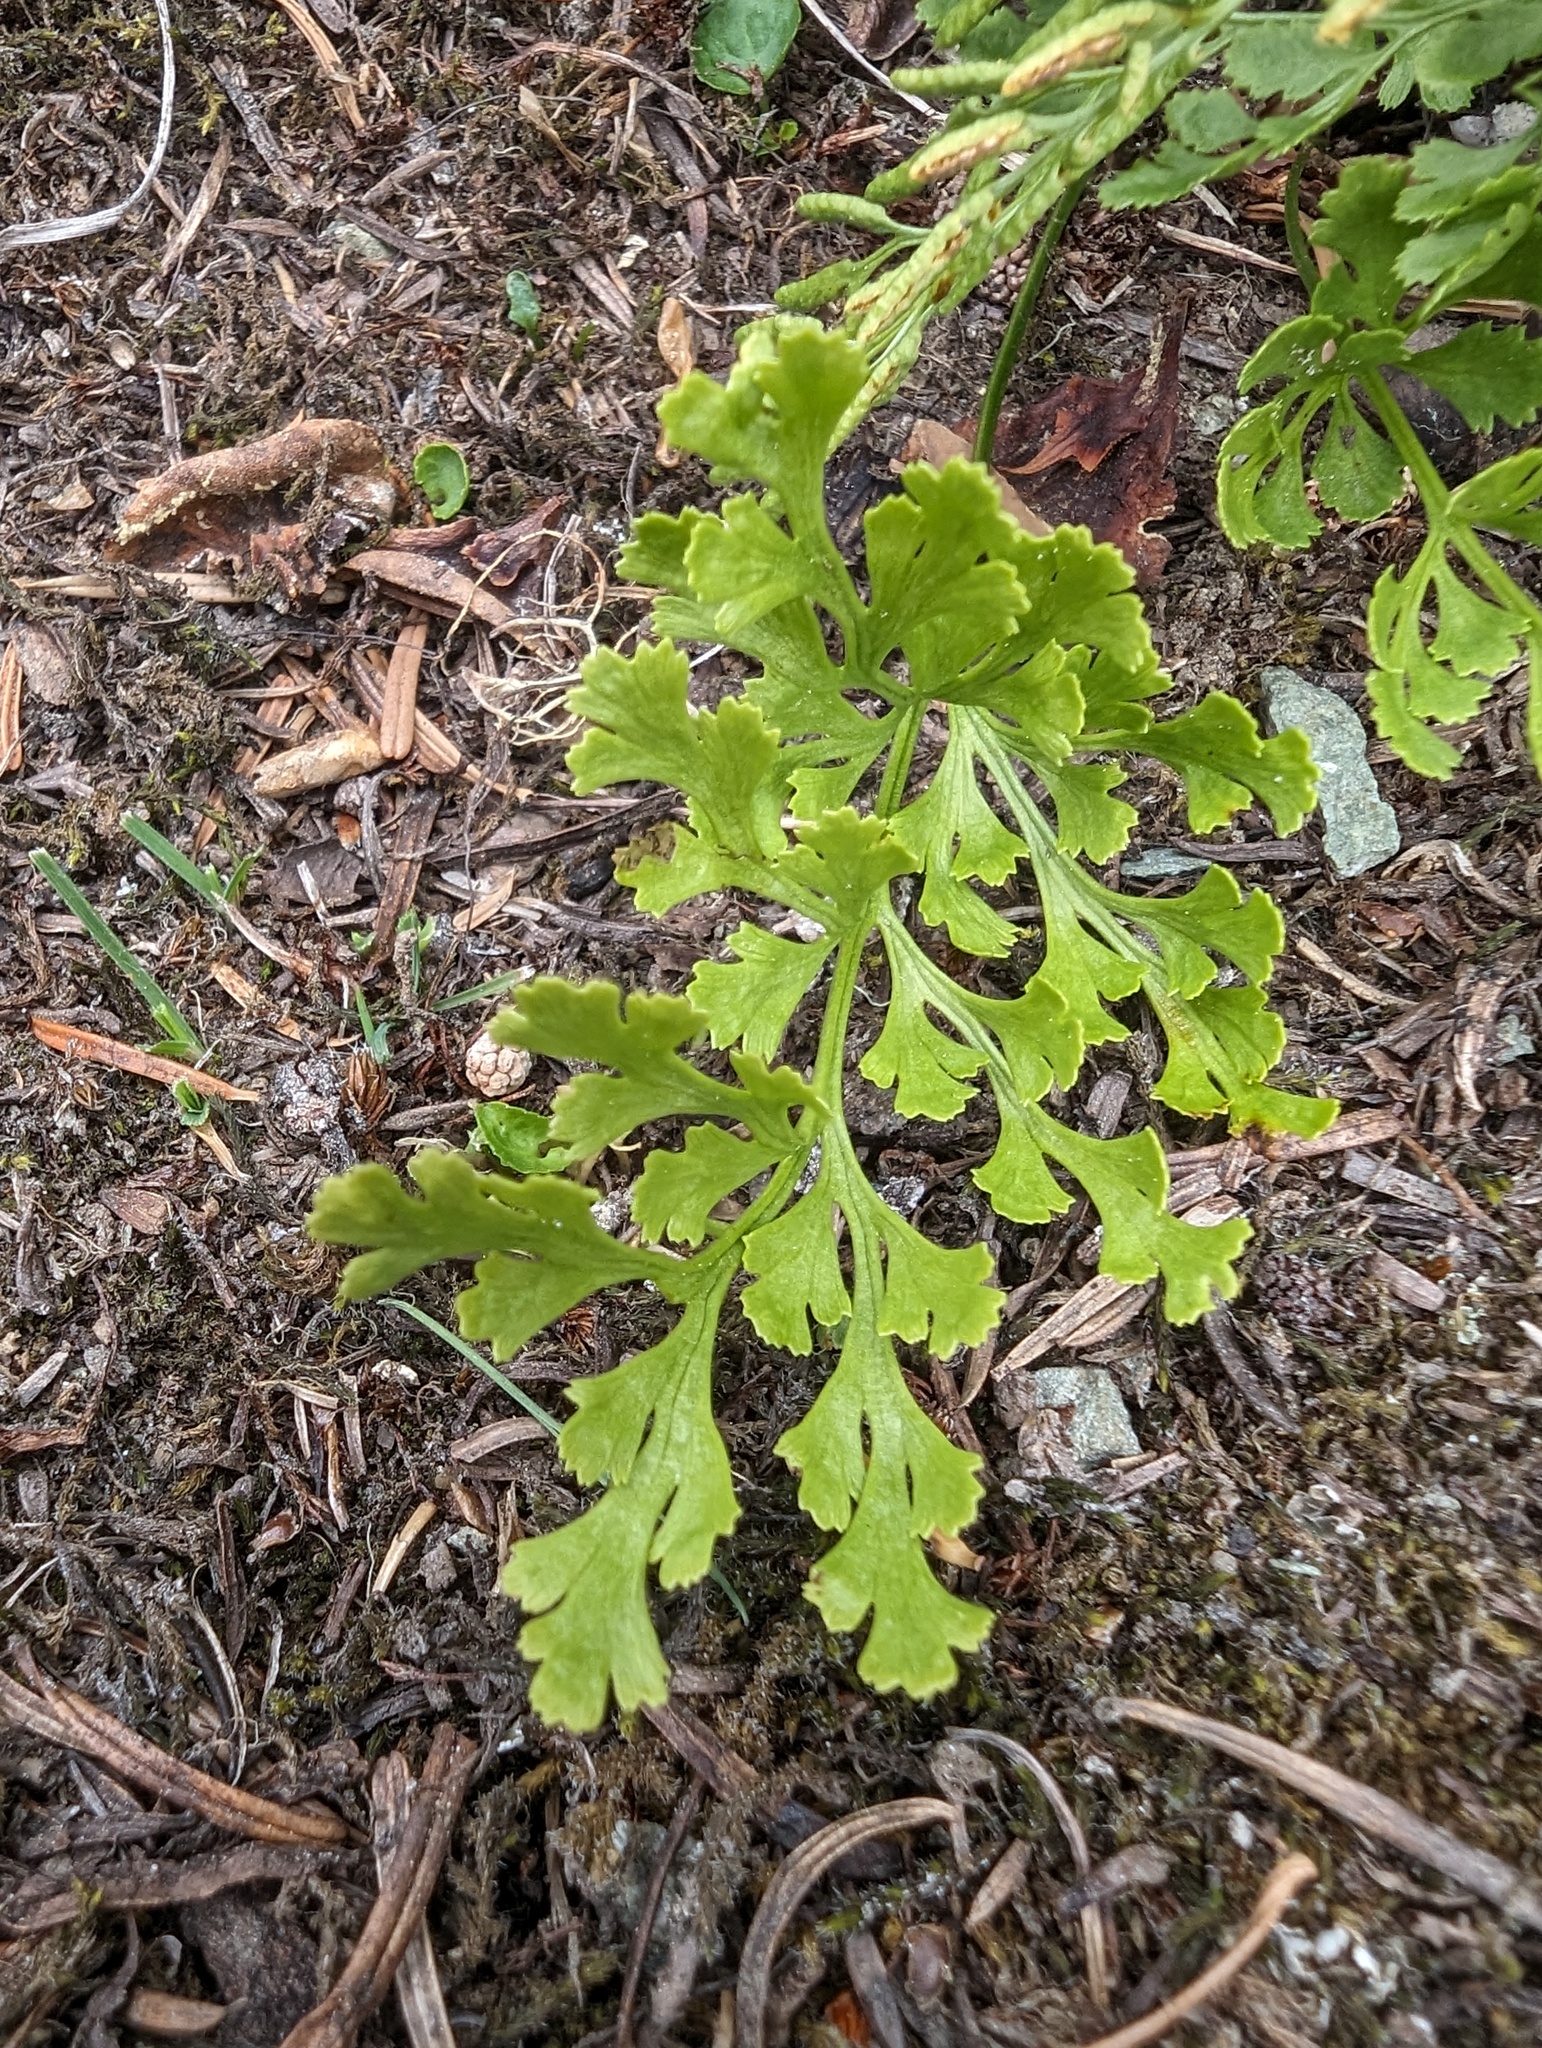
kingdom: Plantae
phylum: Tracheophyta
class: Polypodiopsida
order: Polypodiales
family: Pteridaceae
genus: Cryptogramma
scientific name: Cryptogramma cascadensis
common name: Cascade parsley fern
